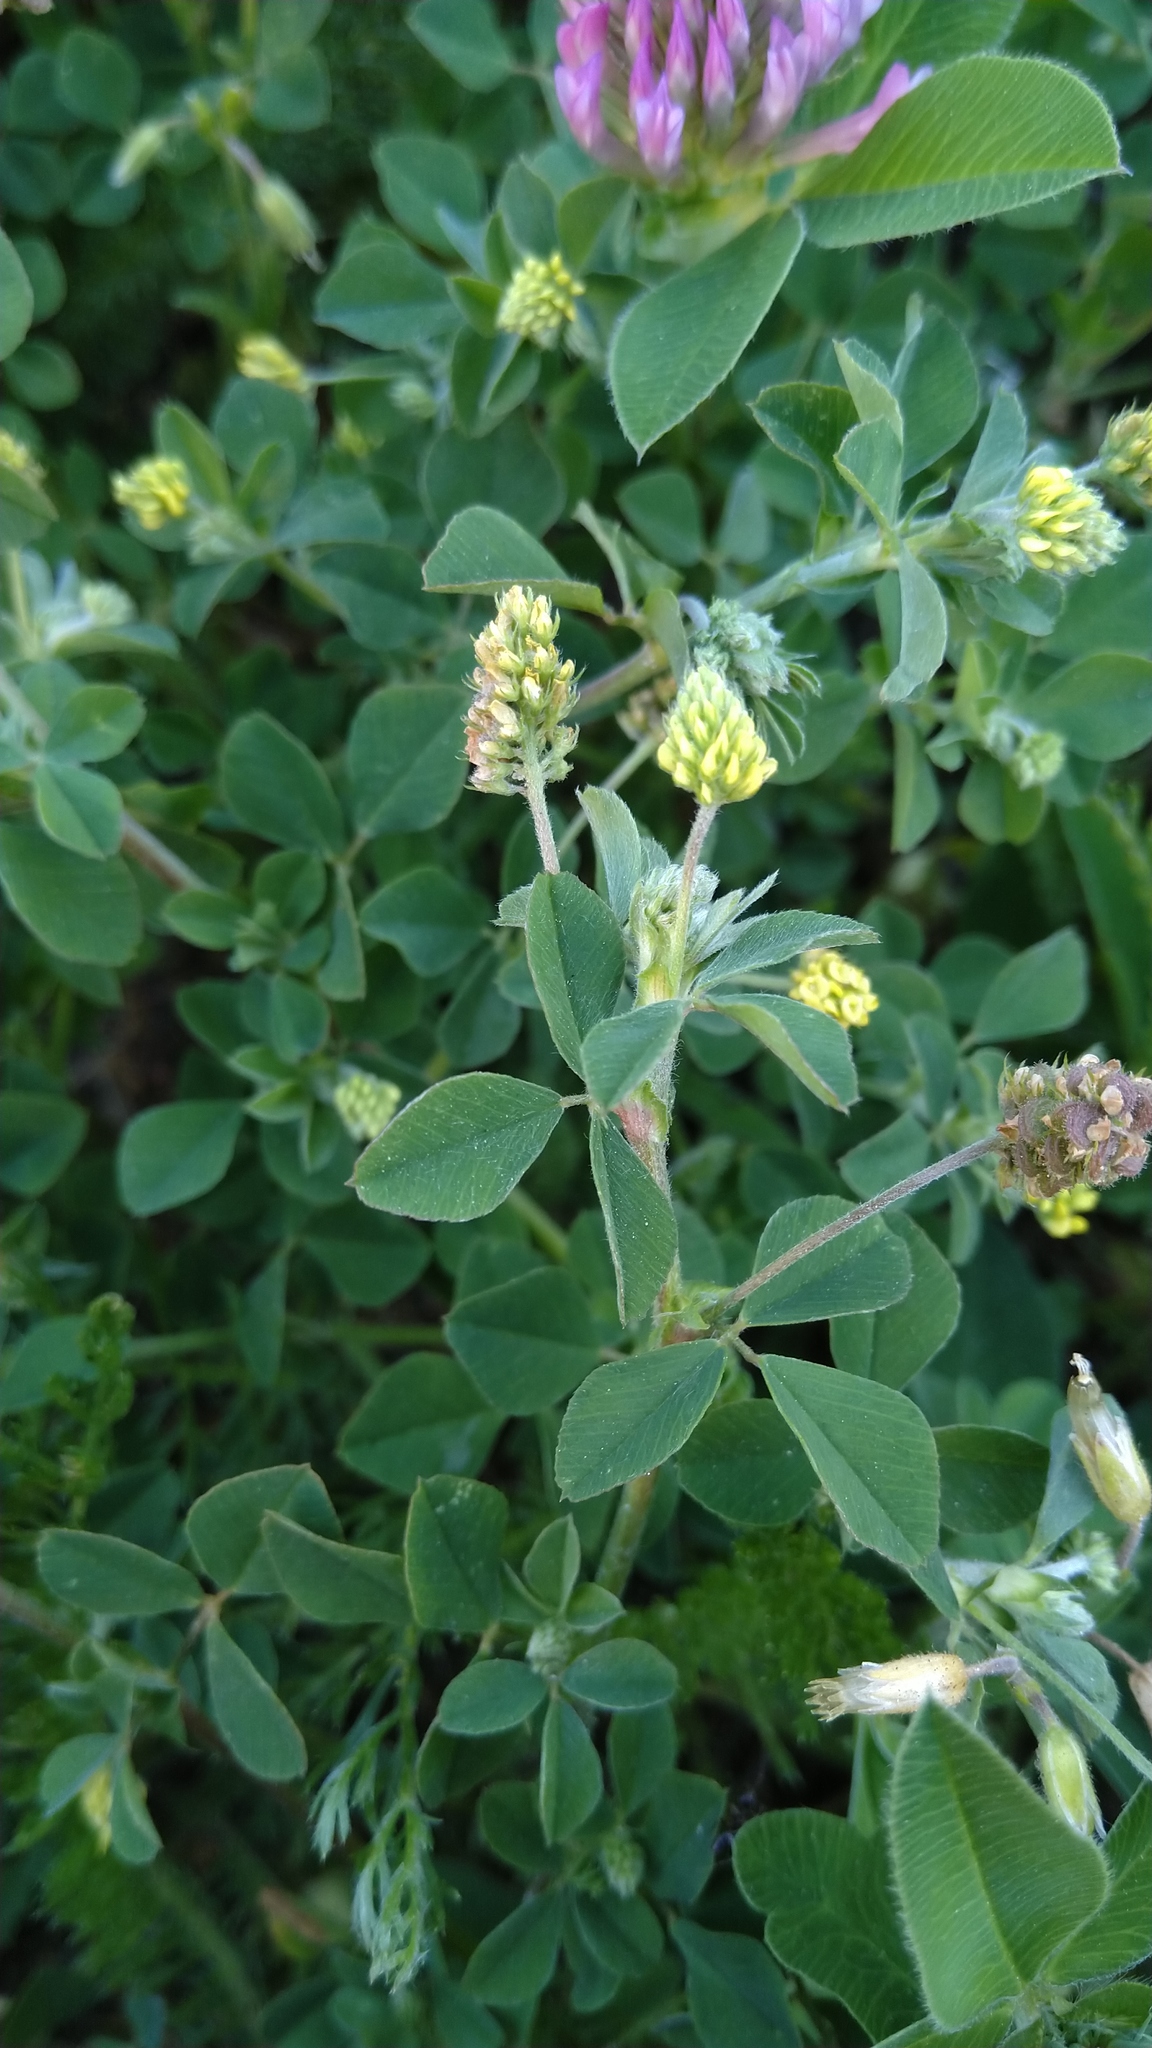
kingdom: Plantae
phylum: Tracheophyta
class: Magnoliopsida
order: Fabales
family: Fabaceae
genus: Medicago
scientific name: Medicago lupulina
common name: Black medick
